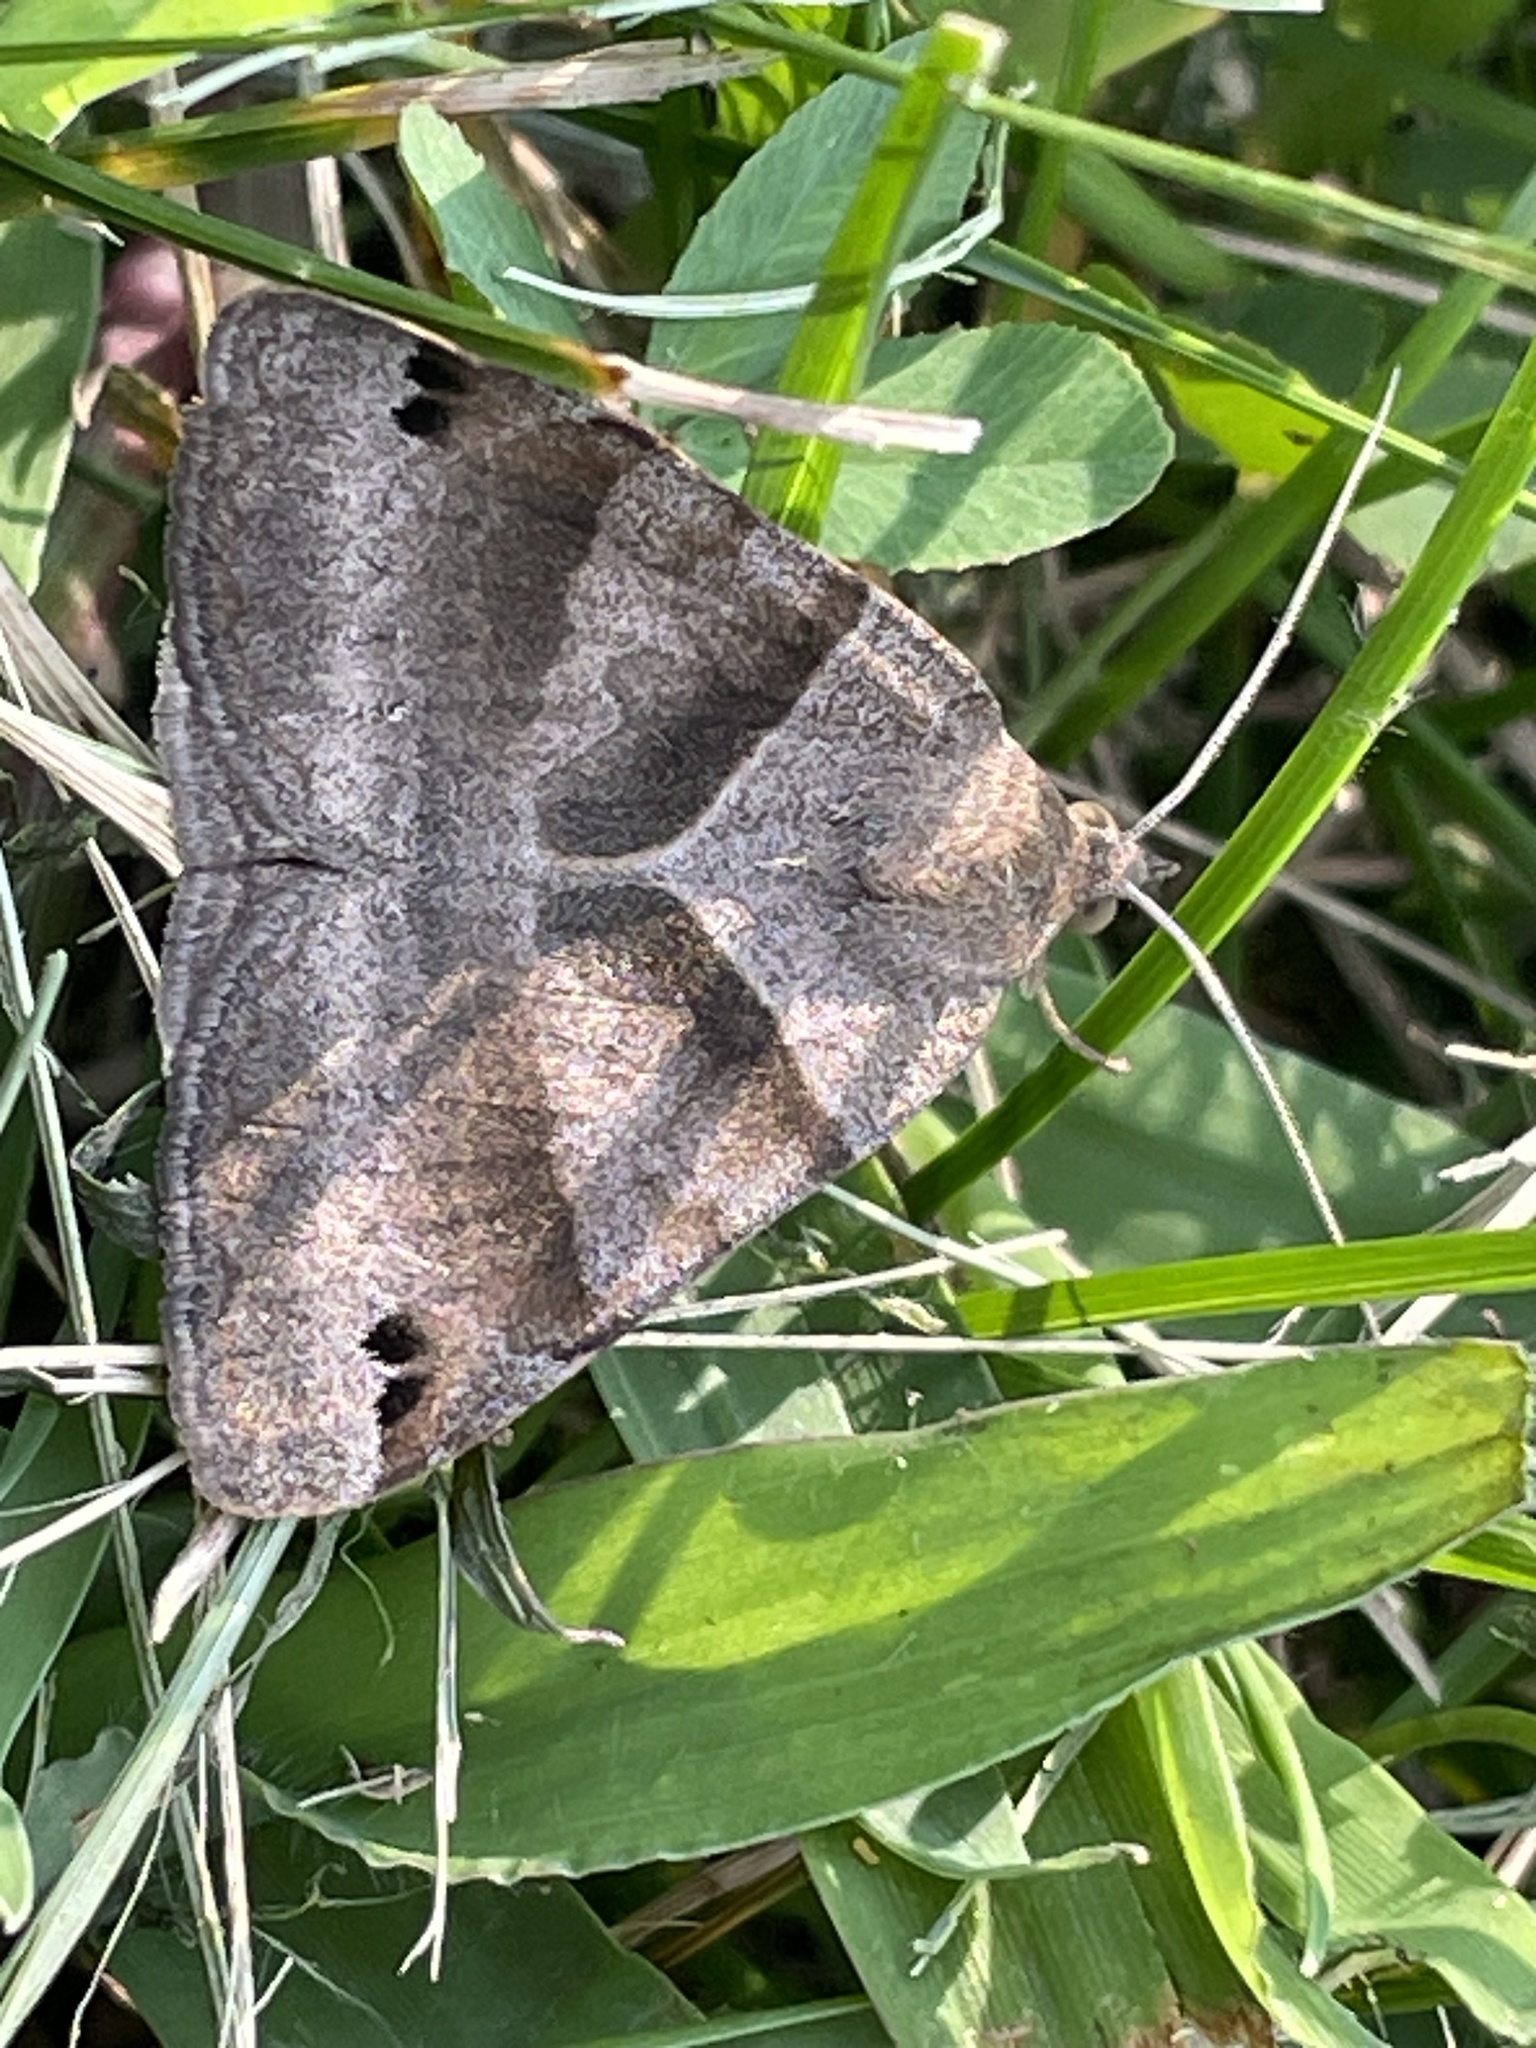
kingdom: Animalia
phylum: Arthropoda
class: Insecta
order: Lepidoptera
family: Erebidae
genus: Caenurgina
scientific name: Caenurgina erechtea
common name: Forage looper moth
